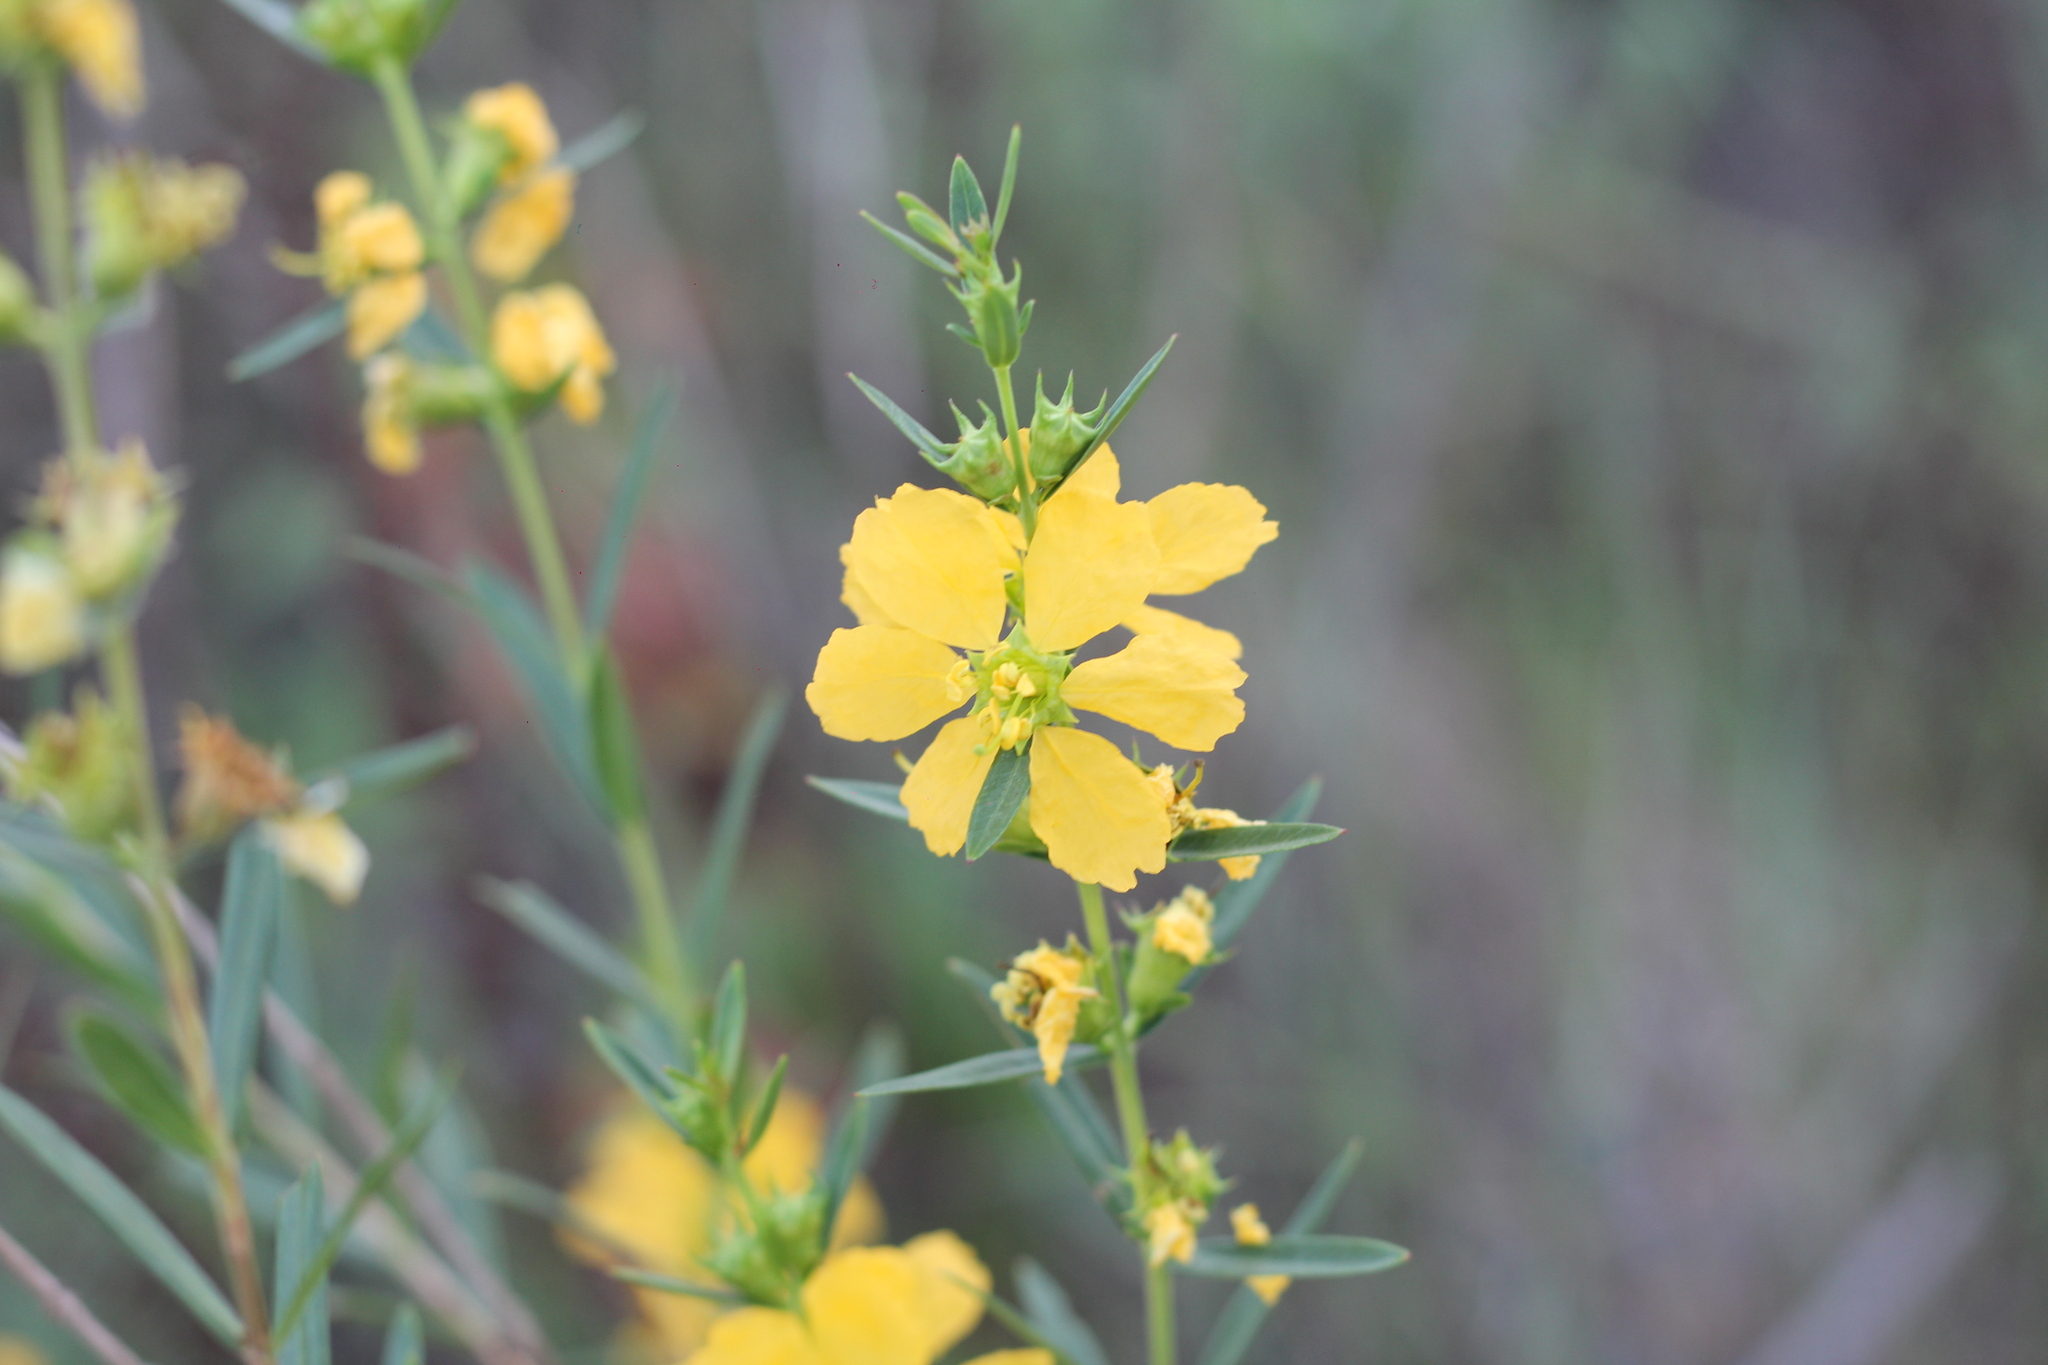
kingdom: Plantae
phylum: Tracheophyta
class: Magnoliopsida
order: Myrtales
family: Lythraceae
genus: Heimia
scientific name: Heimia salicifolia
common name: Willow-leaf heimia
